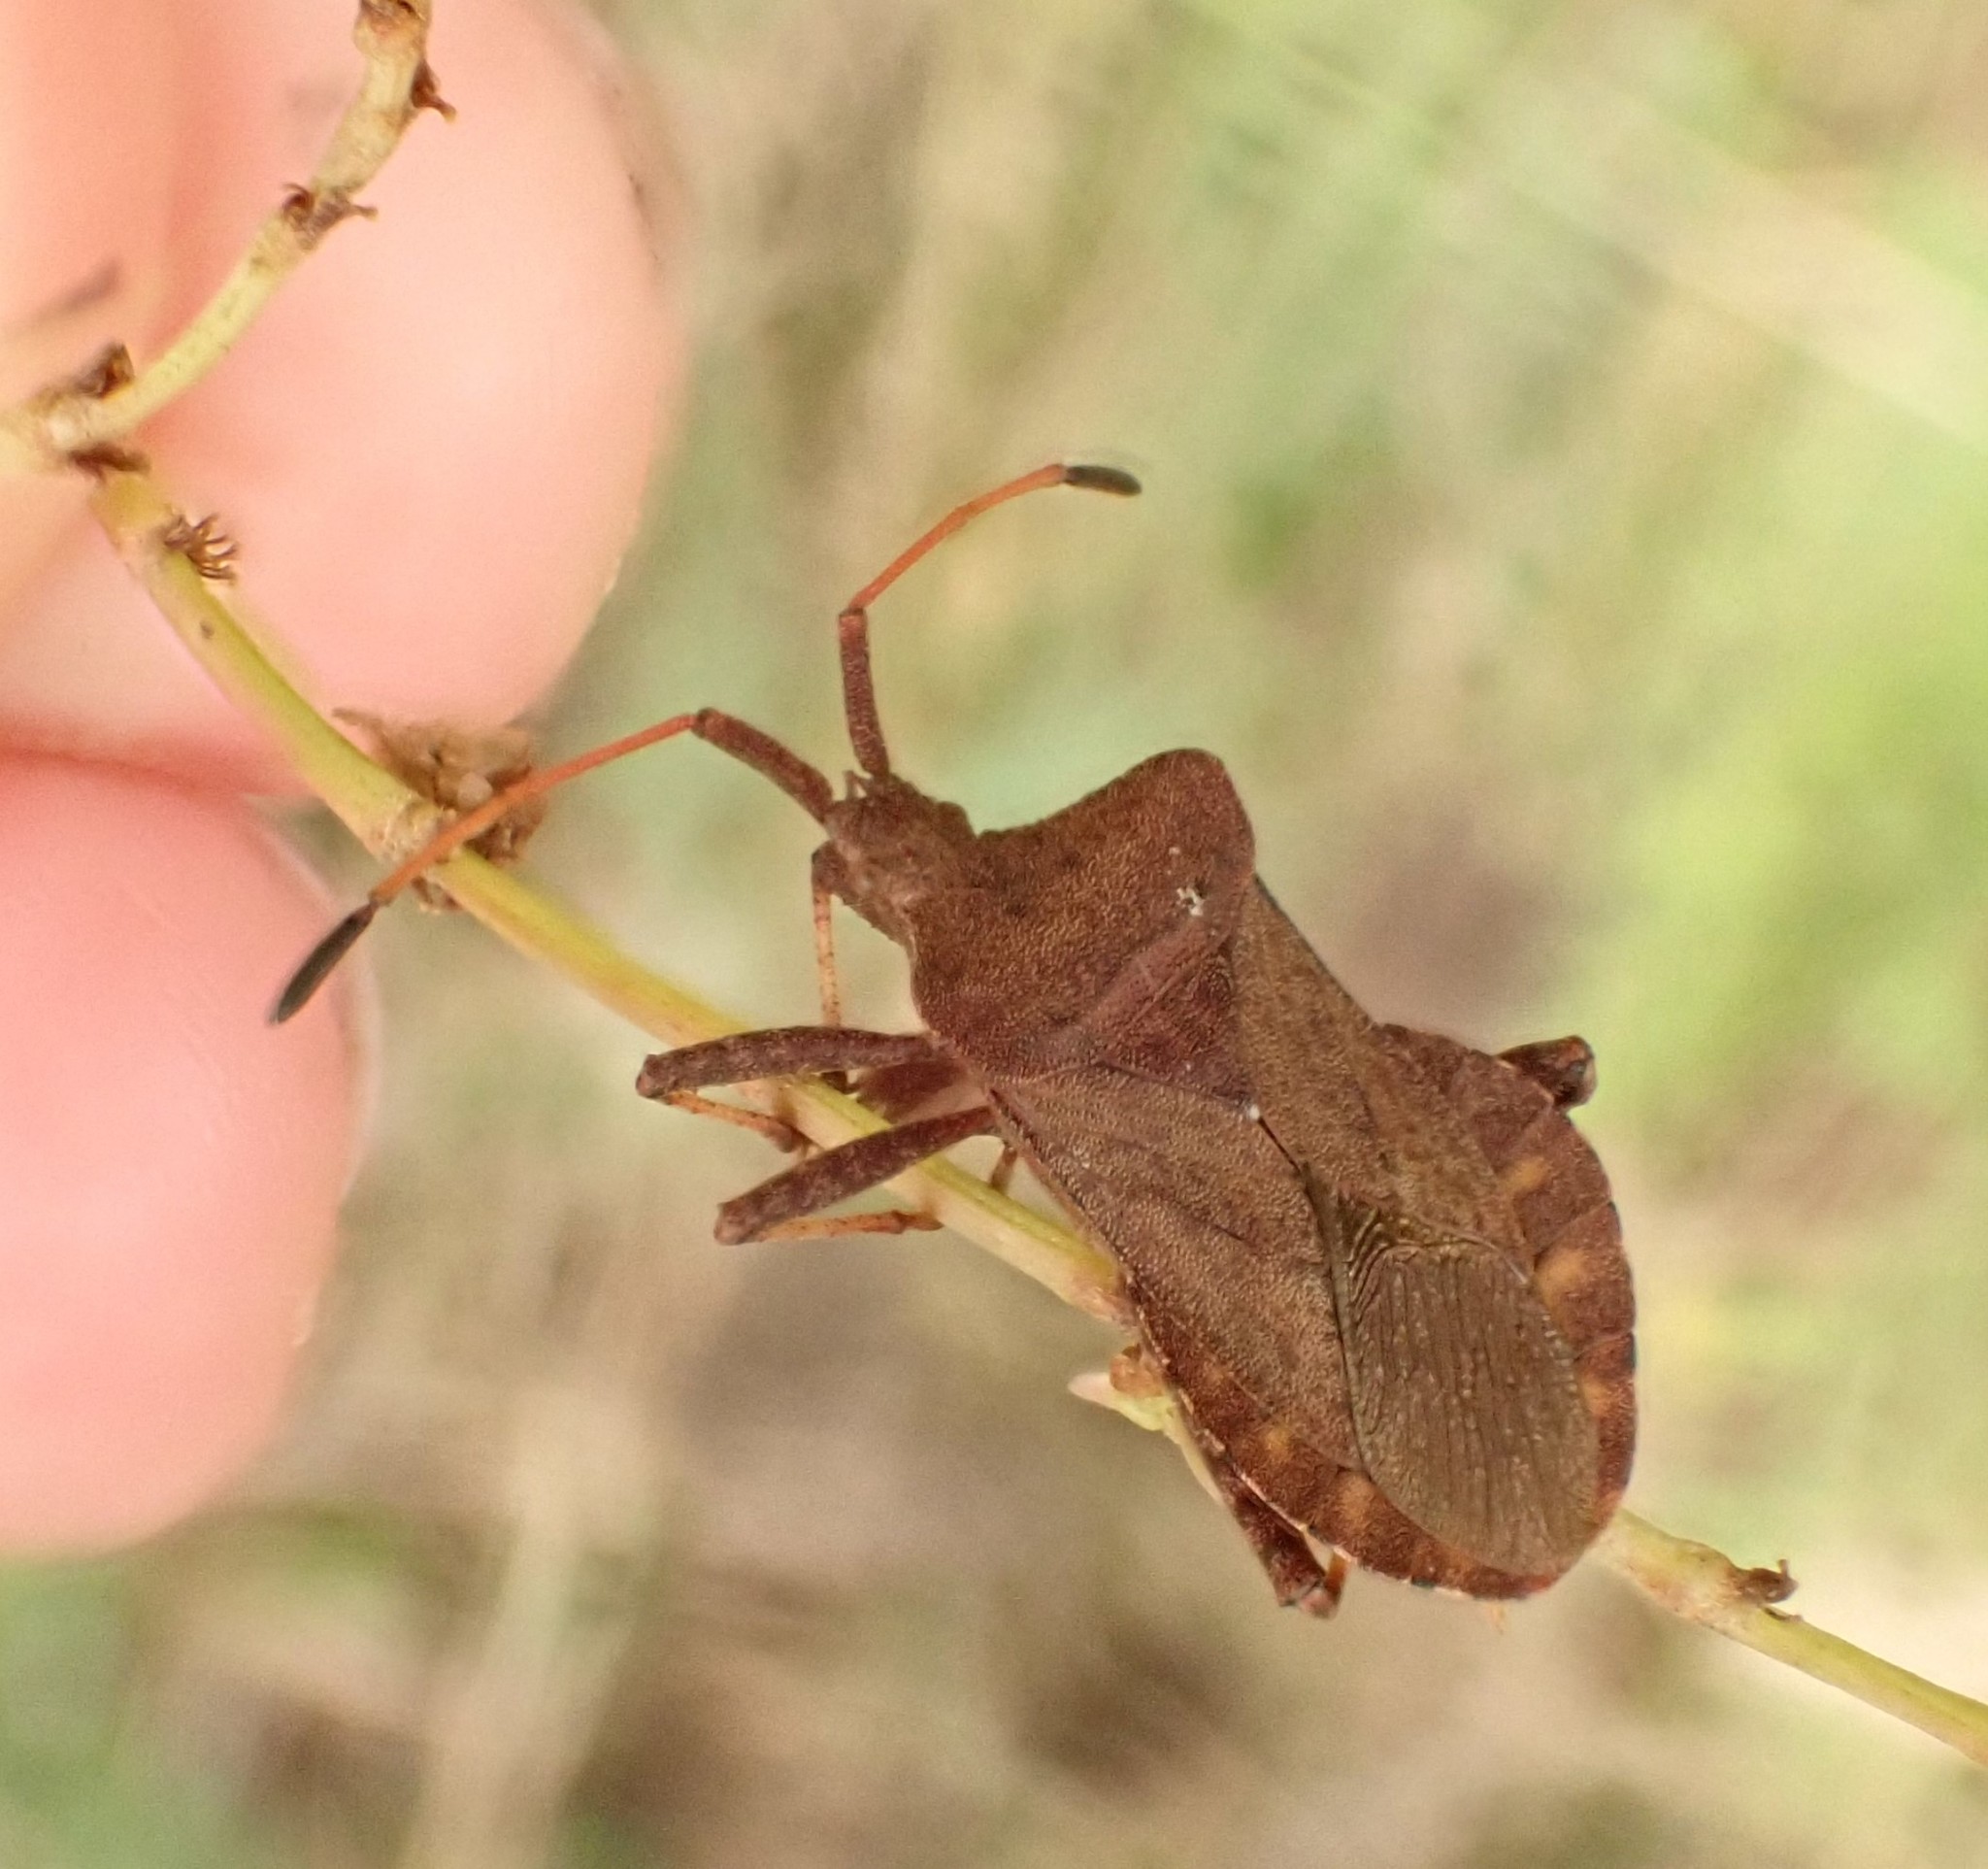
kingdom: Animalia
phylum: Arthropoda
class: Insecta
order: Hemiptera
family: Coreidae
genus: Coreus
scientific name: Coreus marginatus
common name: Dock bug
